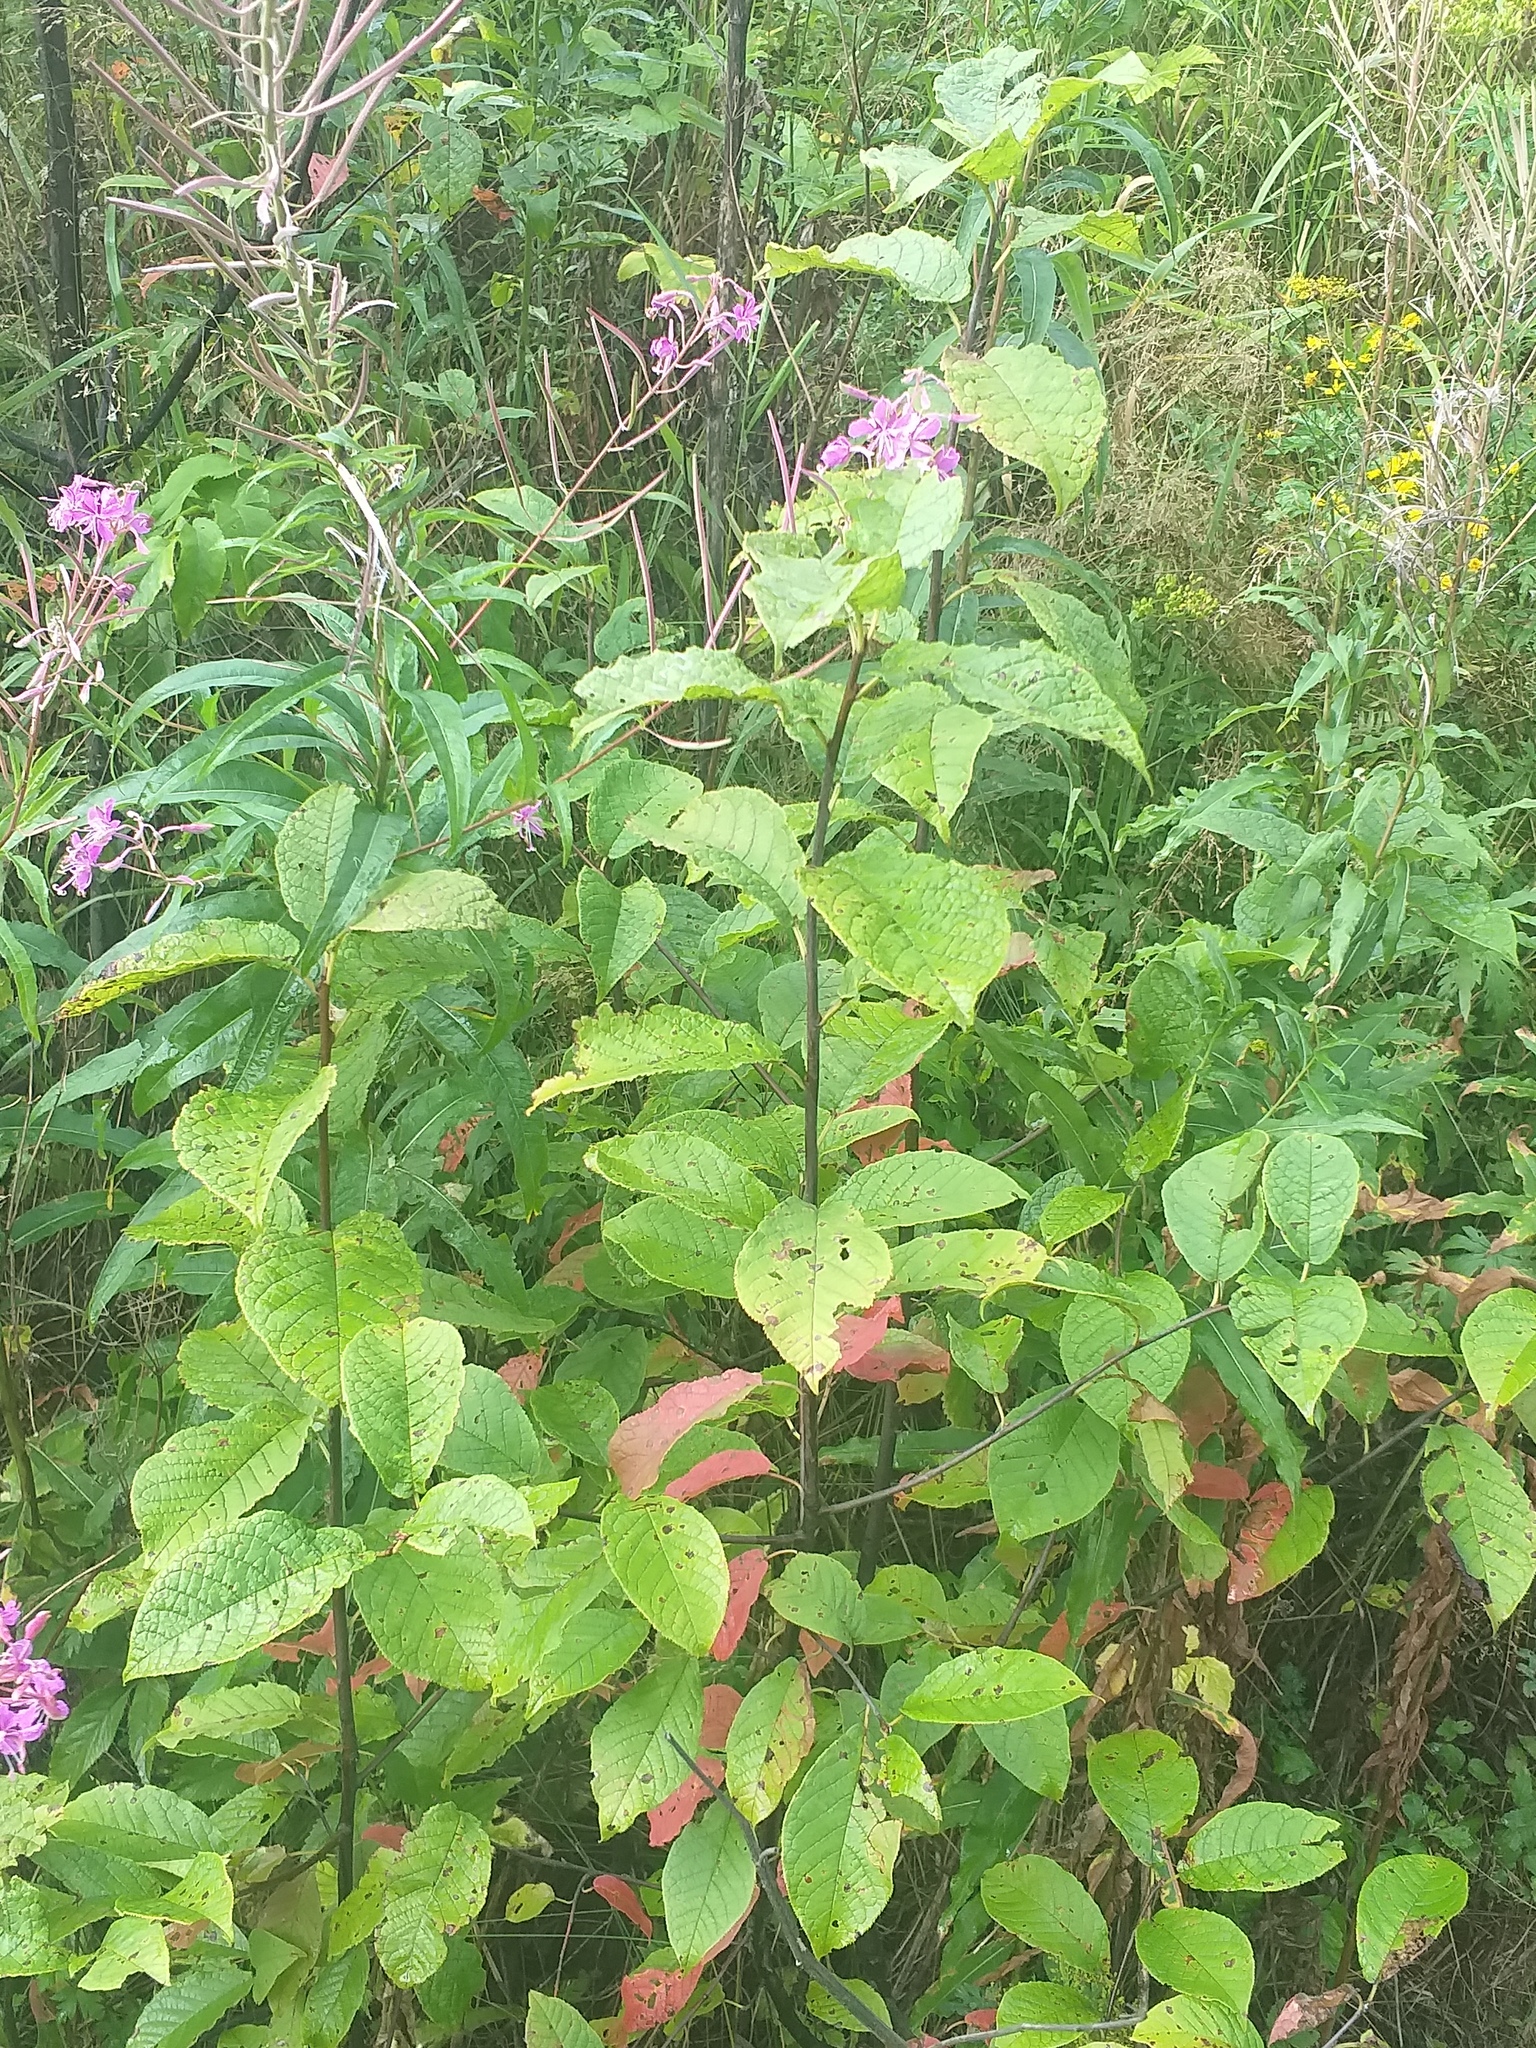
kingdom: Plantae
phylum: Tracheophyta
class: Magnoliopsida
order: Rosales
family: Rosaceae
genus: Prunus
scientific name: Prunus padus
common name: Bird cherry
